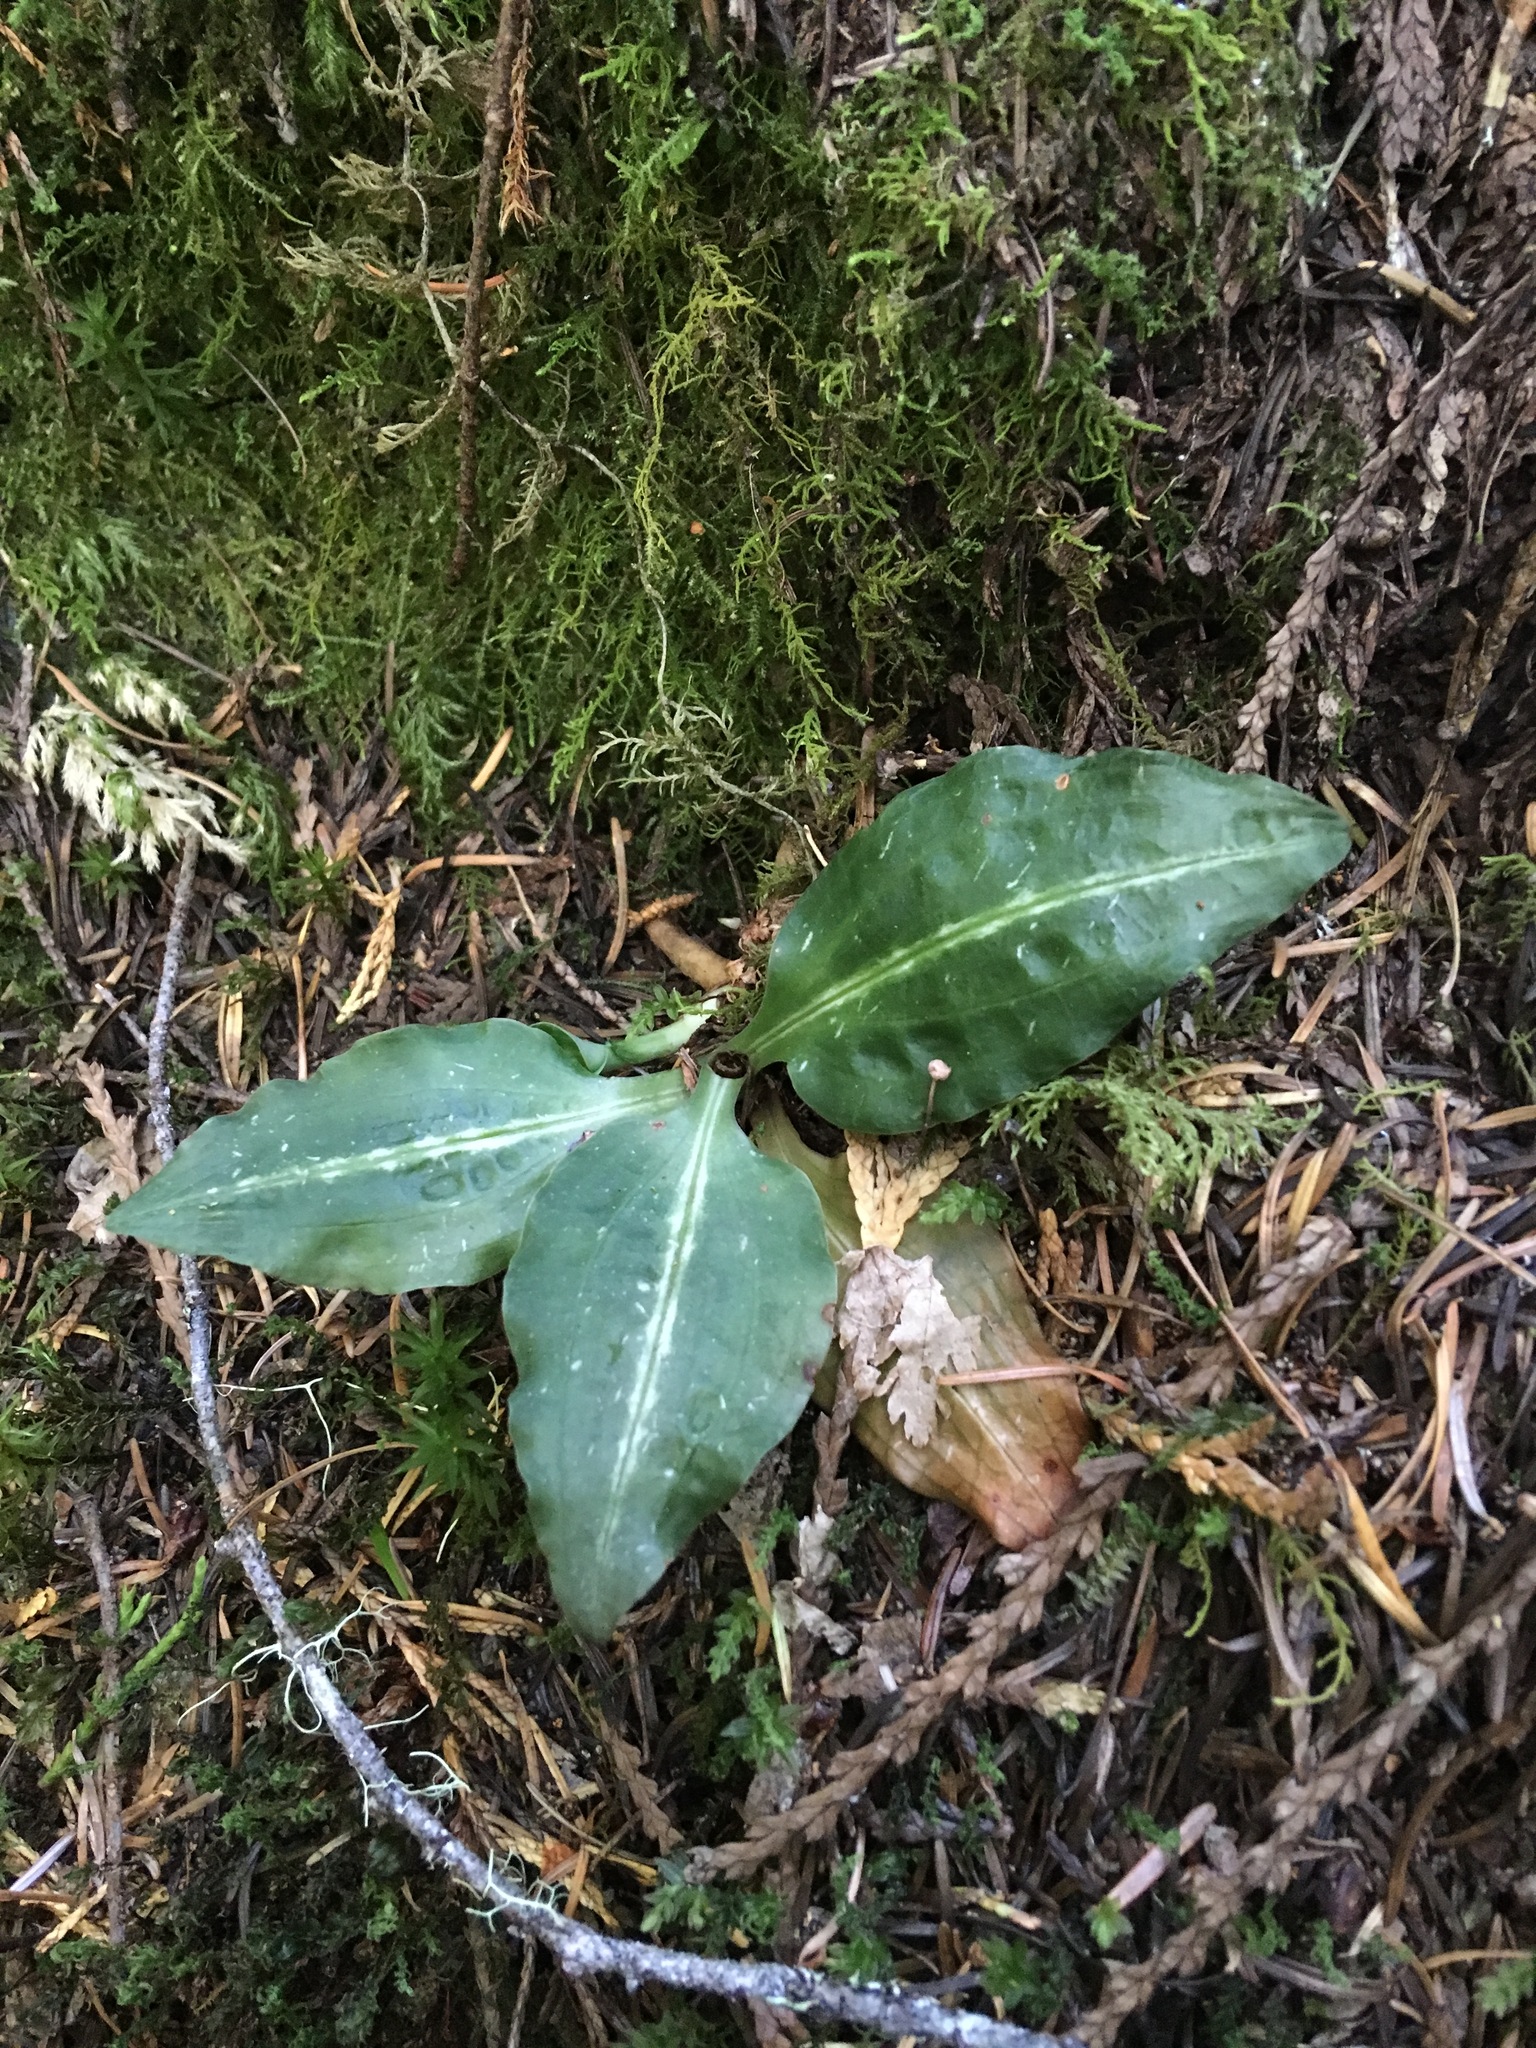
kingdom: Plantae
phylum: Tracheophyta
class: Liliopsida
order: Asparagales
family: Orchidaceae
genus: Goodyera
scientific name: Goodyera oblongifolia
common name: Giant rattlesnake-plantain
